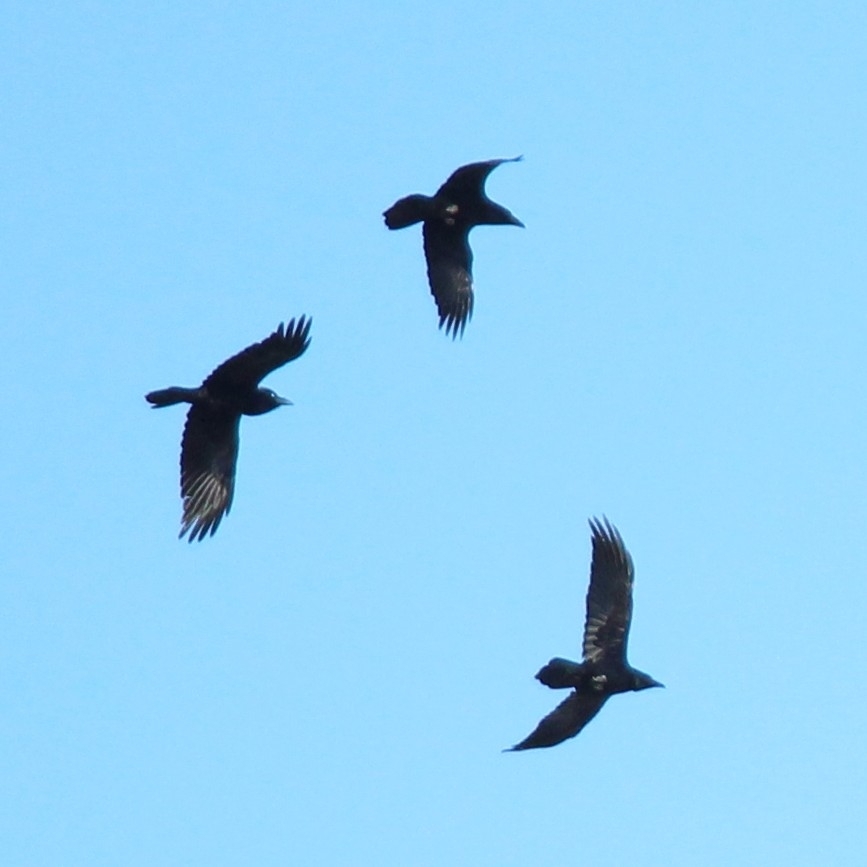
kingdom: Animalia
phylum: Chordata
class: Aves
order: Passeriformes
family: Corvidae
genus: Corvus
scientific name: Corvus corax
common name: Common raven
